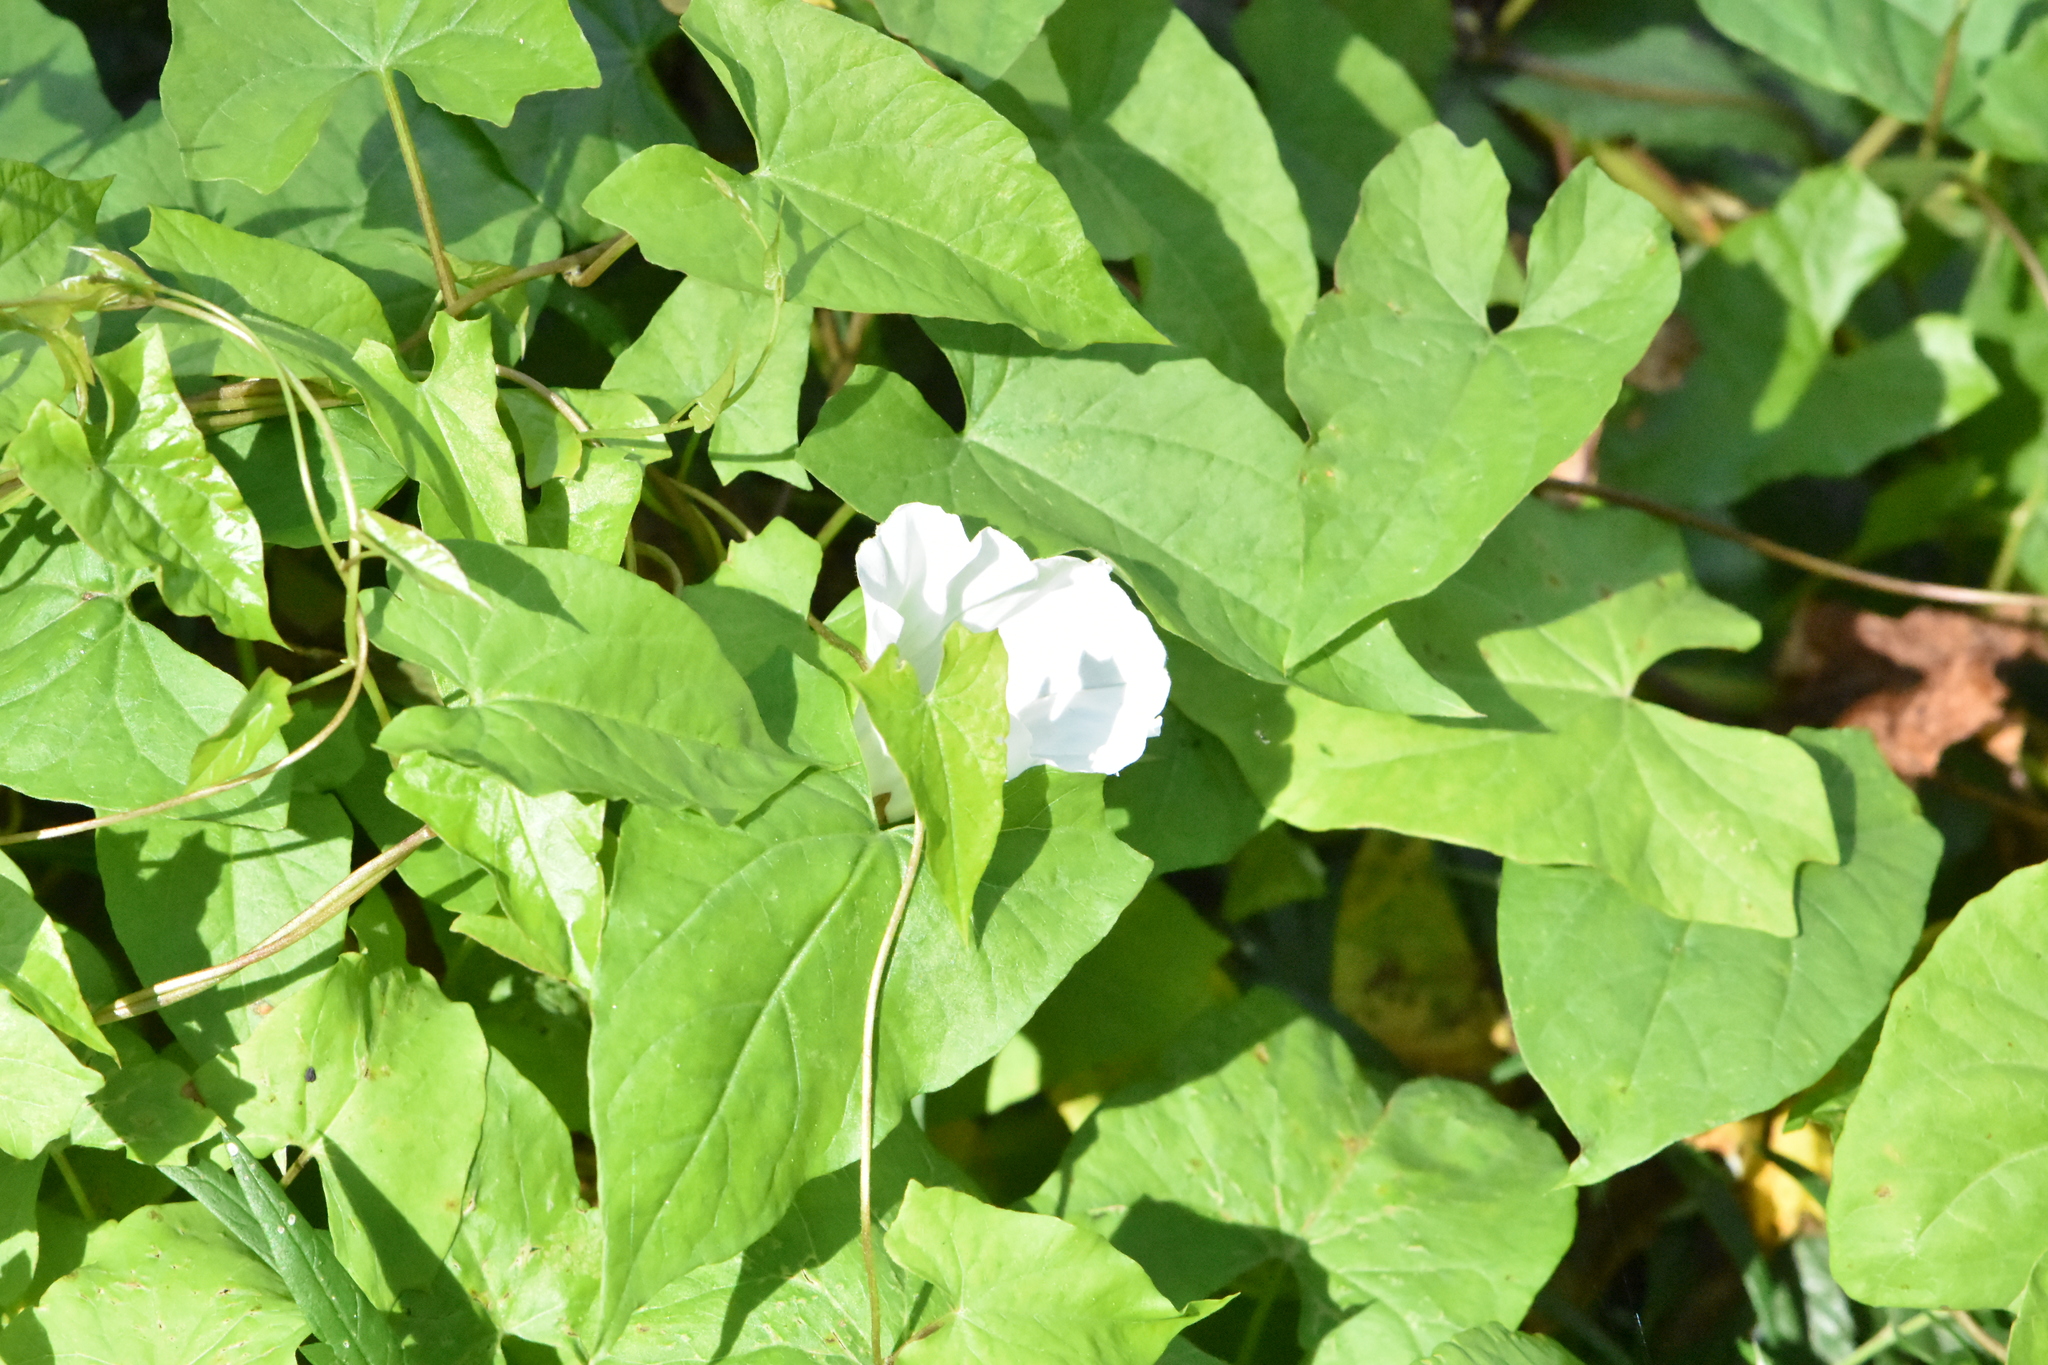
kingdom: Plantae
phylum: Tracheophyta
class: Magnoliopsida
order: Solanales
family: Convolvulaceae
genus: Calystegia
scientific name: Calystegia sepium
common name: Hedge bindweed
